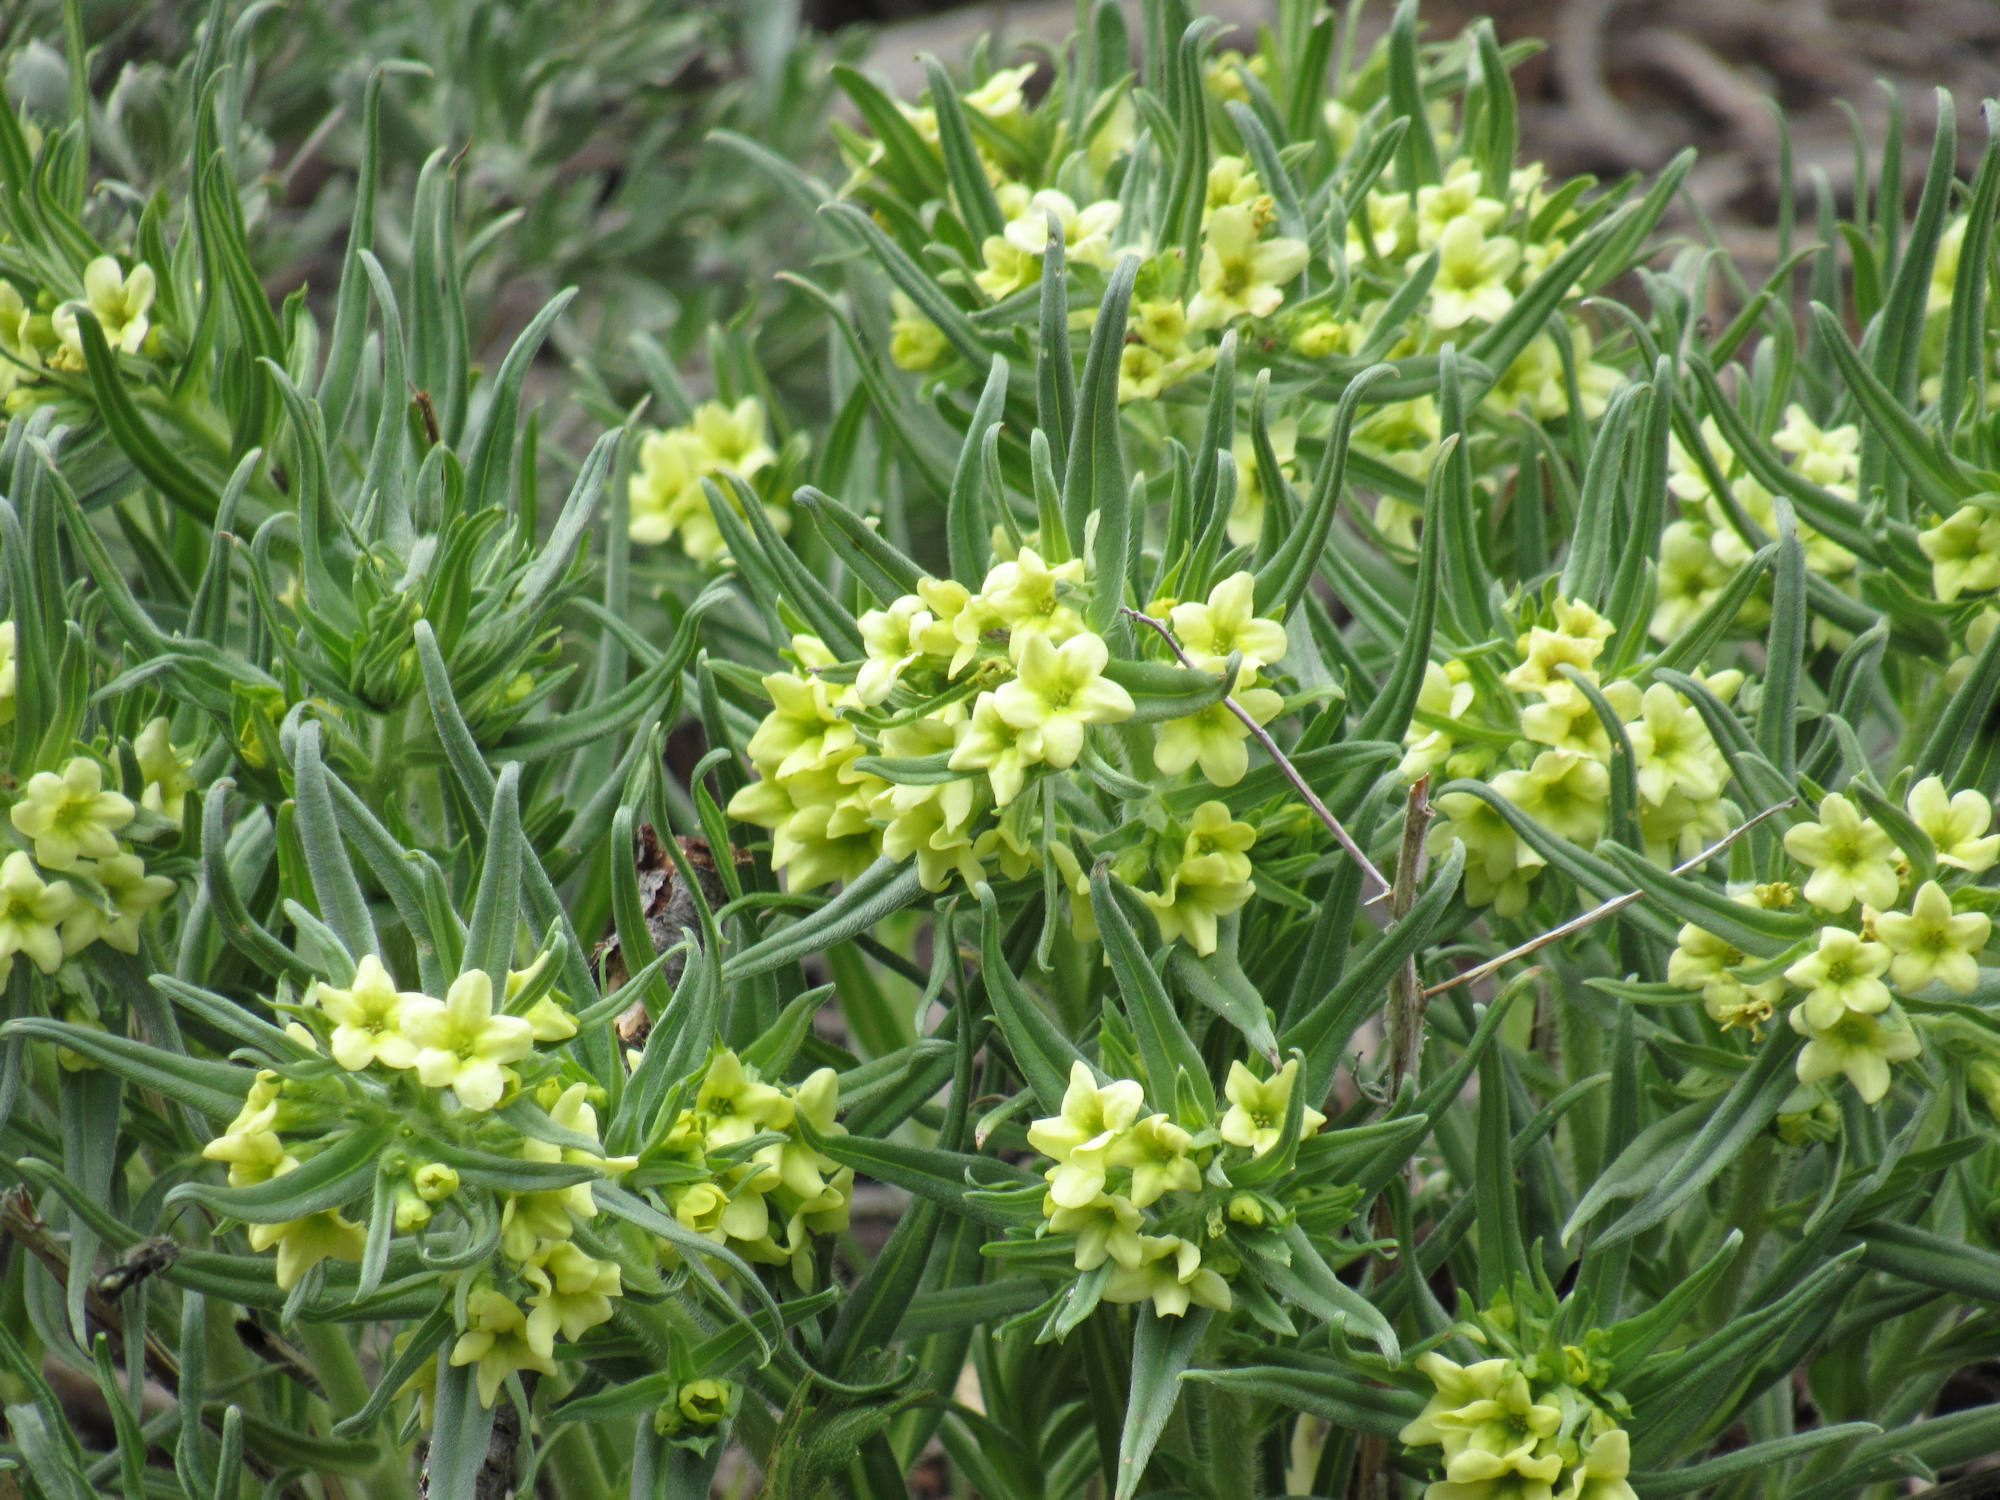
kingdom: Plantae
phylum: Tracheophyta
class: Magnoliopsida
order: Boraginales
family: Boraginaceae
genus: Lithospermum
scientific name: Lithospermum ruderale
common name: Western gromwell
